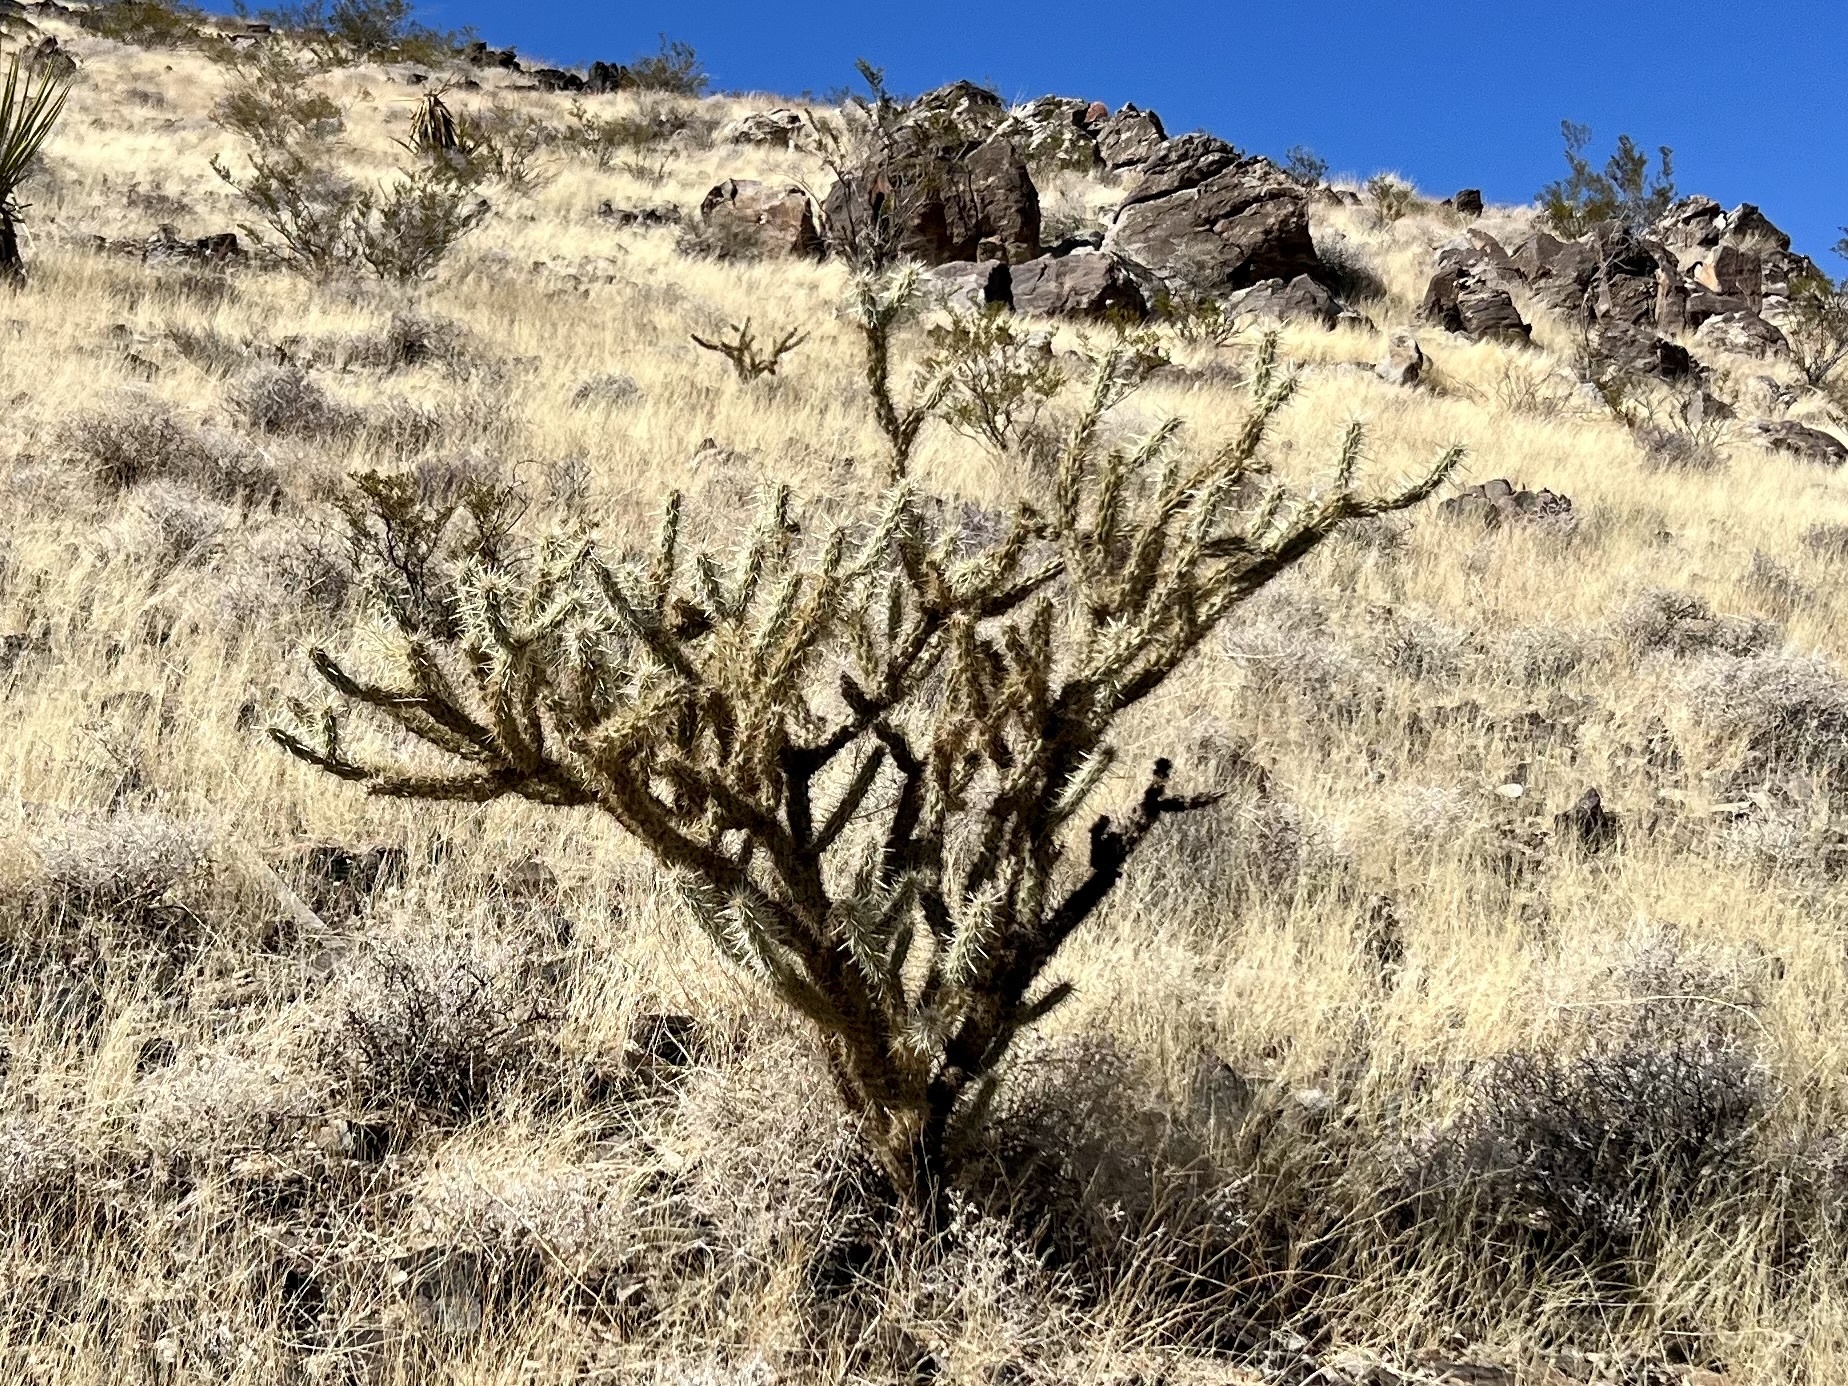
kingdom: Plantae
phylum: Tracheophyta
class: Magnoliopsida
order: Caryophyllales
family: Cactaceae
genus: Cylindropuntia
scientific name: Cylindropuntia acanthocarpa
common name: Buckhorn cholla
